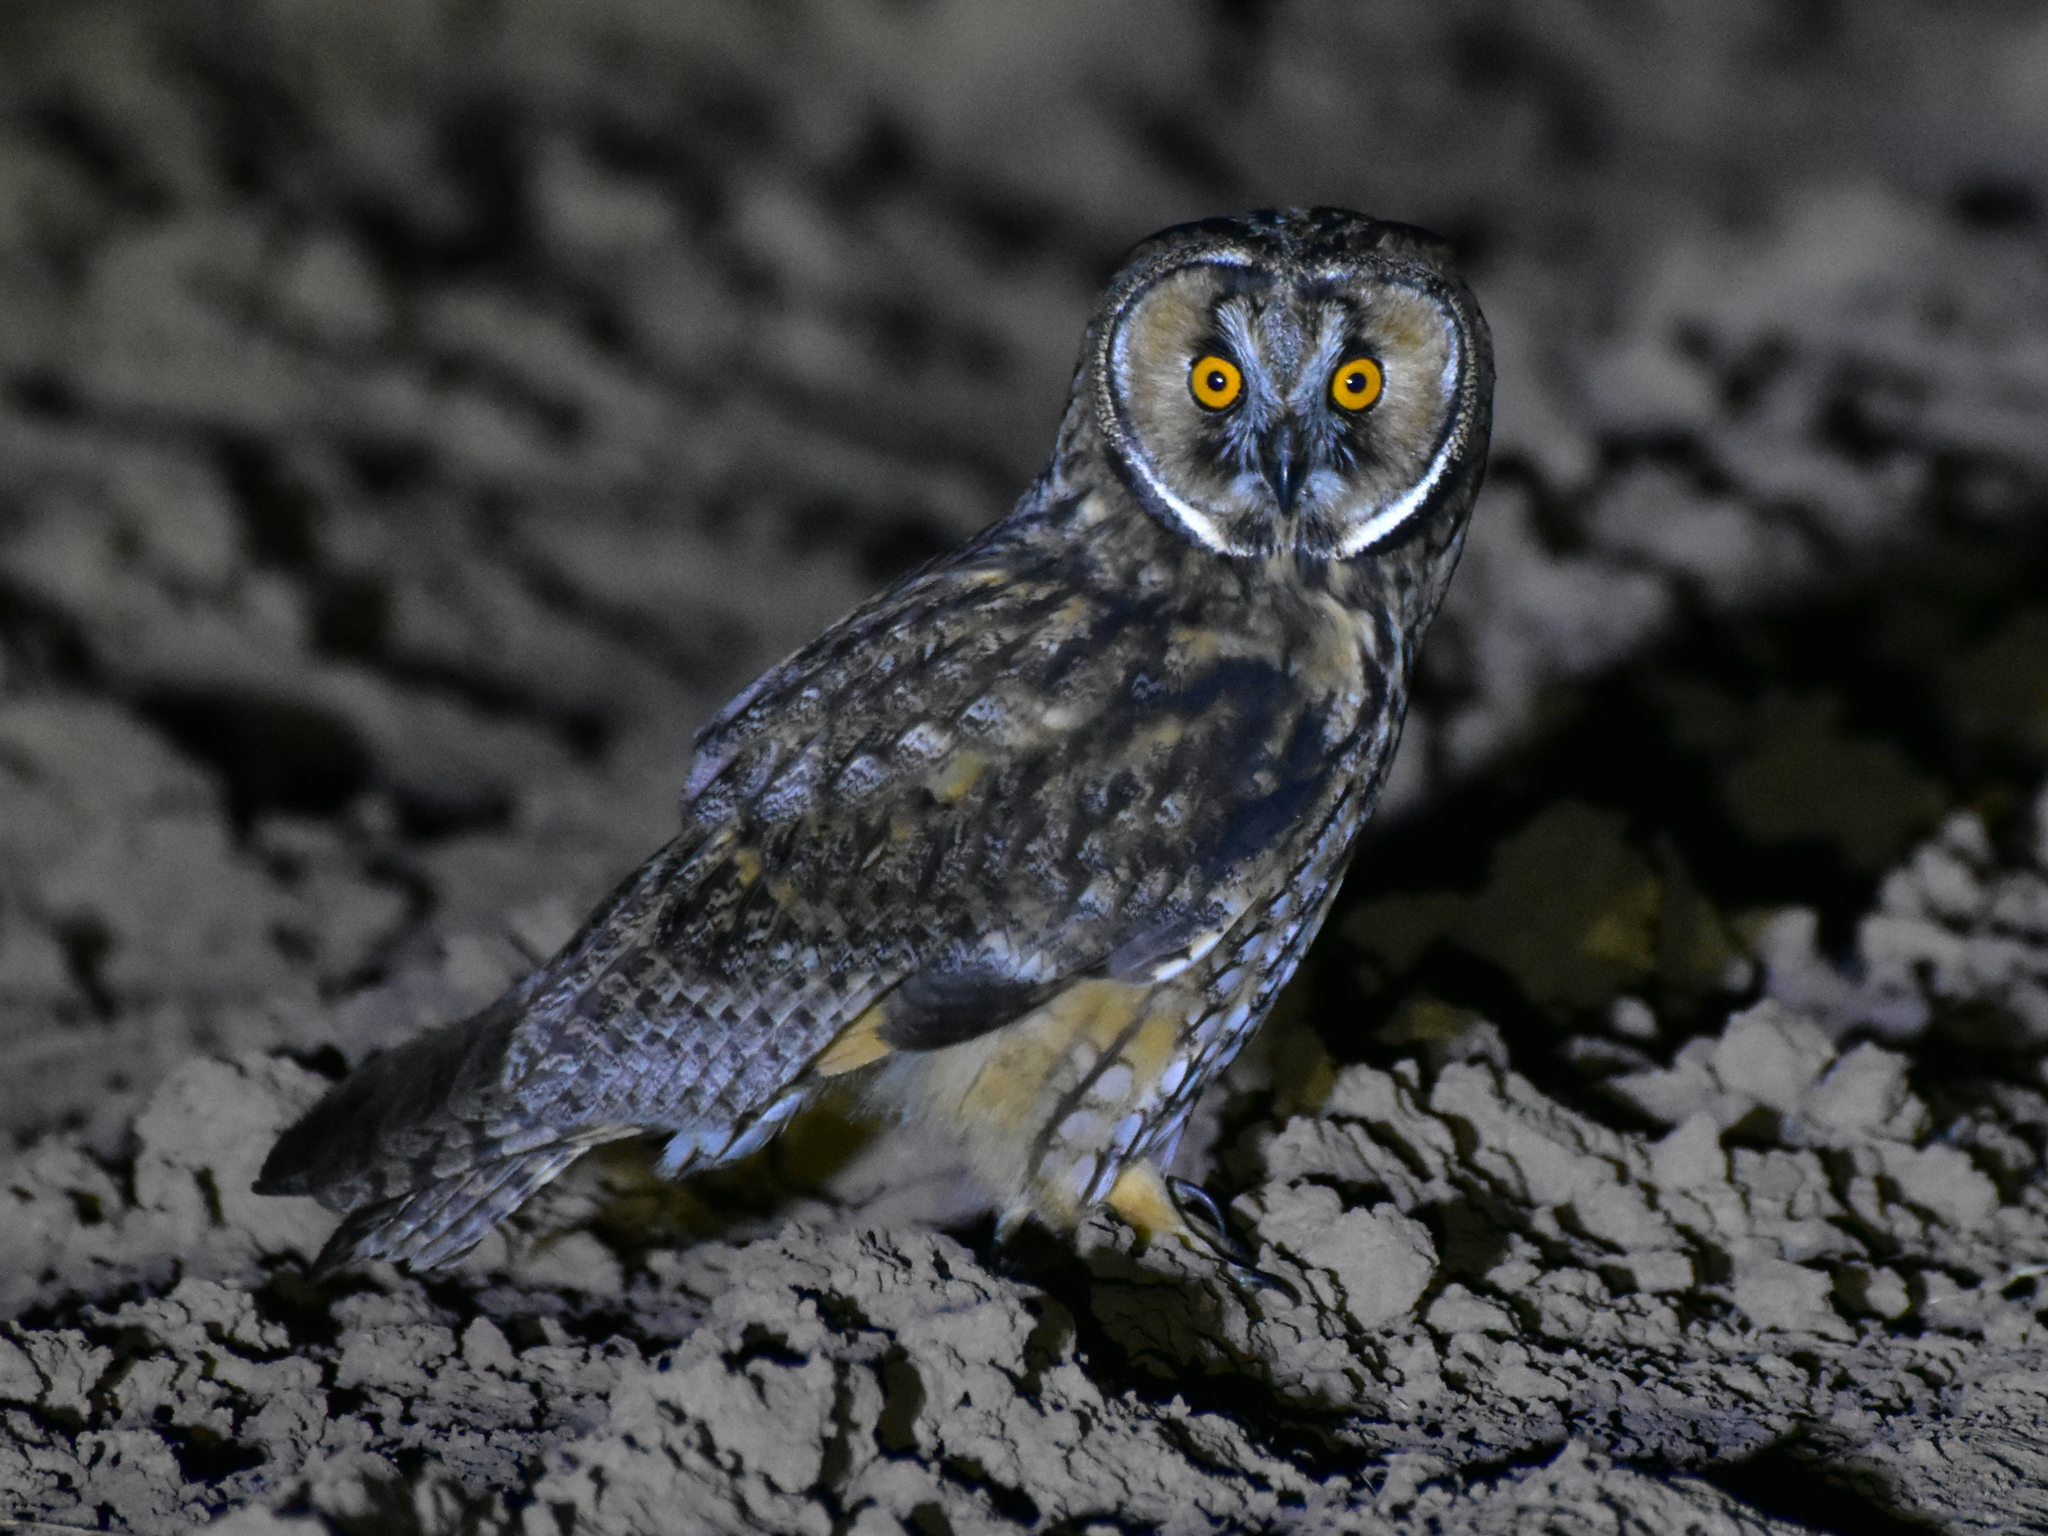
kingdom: Animalia
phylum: Chordata
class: Aves
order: Strigiformes
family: Strigidae
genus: Asio
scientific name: Asio otus
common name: Long-eared owl
